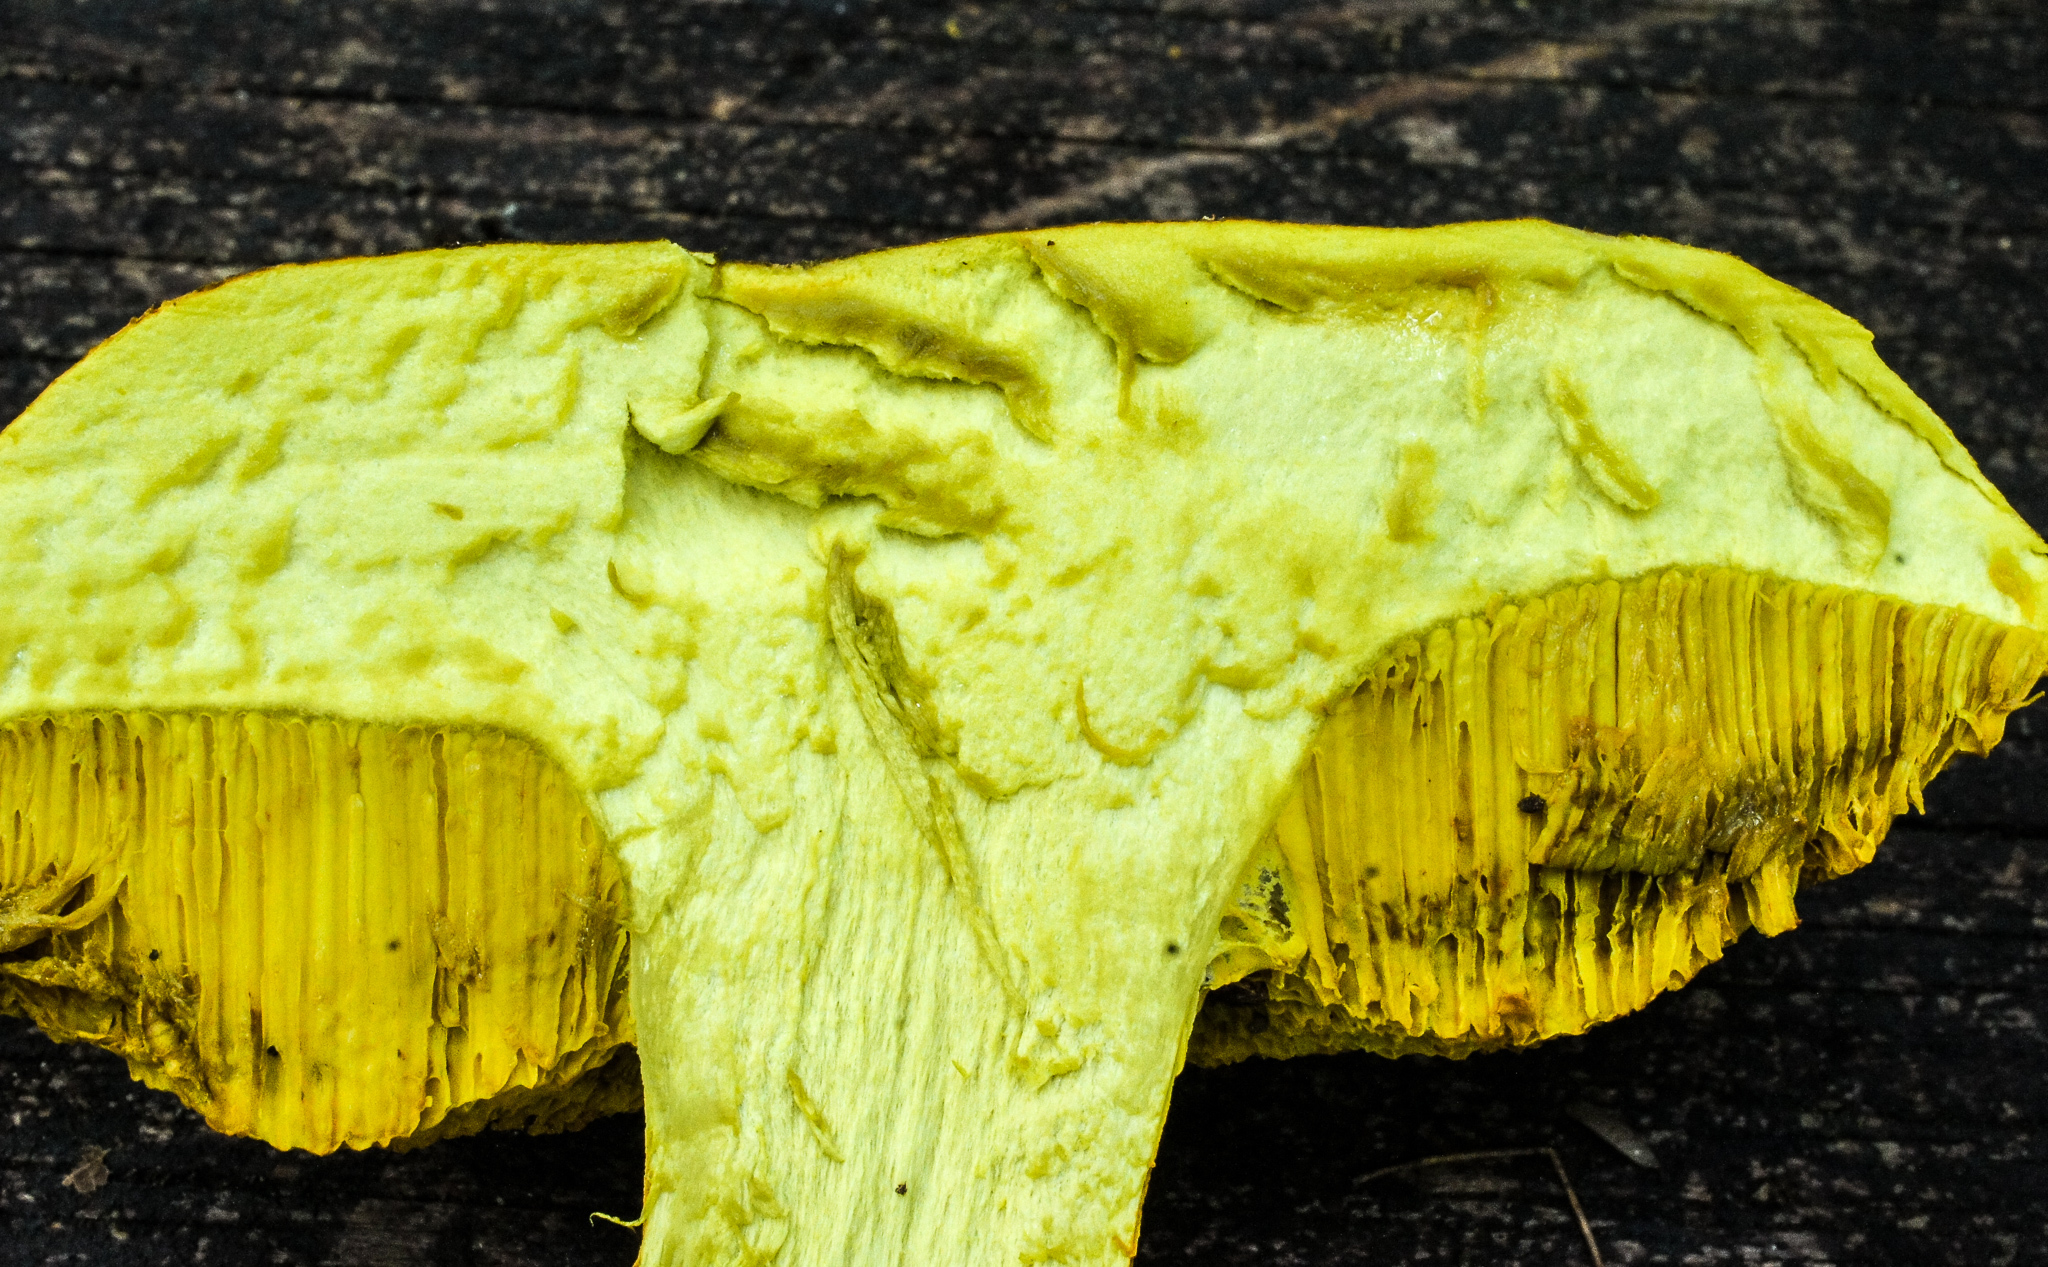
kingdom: Fungi
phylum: Basidiomycota
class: Agaricomycetes
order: Boletales
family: Boletaceae
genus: Retiboletus
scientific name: Retiboletus ornatipes
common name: Ornate-stalked bolete
